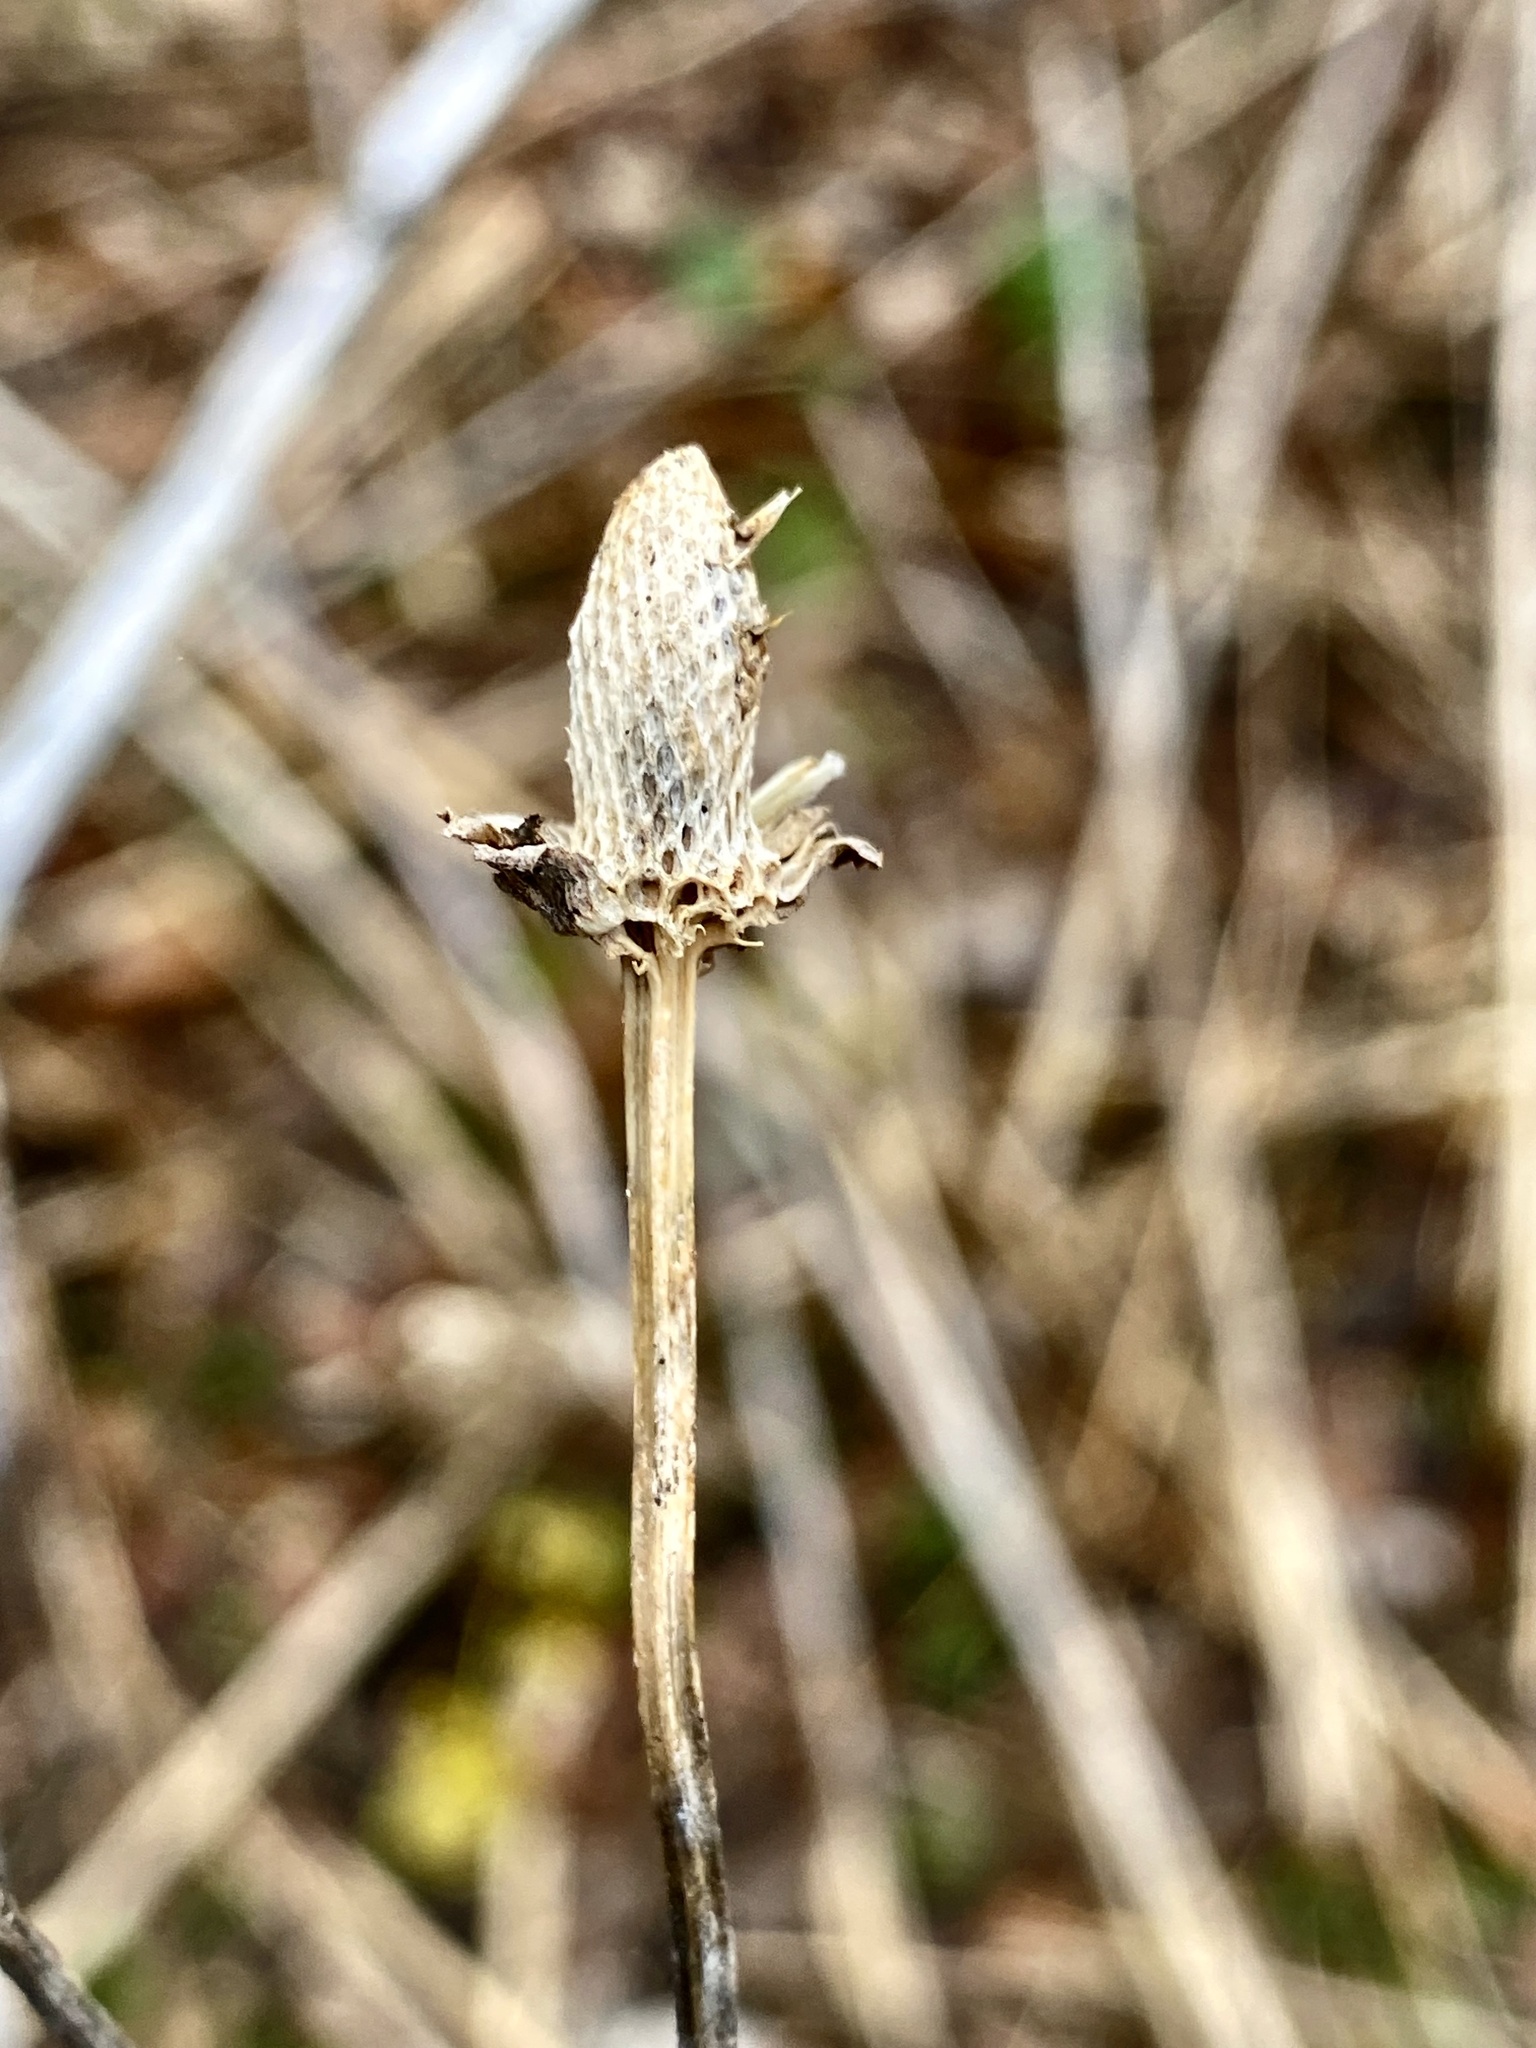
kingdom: Plantae
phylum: Tracheophyta
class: Magnoliopsida
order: Asterales
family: Asteraceae
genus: Rudbeckia
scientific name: Rudbeckia laciniata
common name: Coneflower
